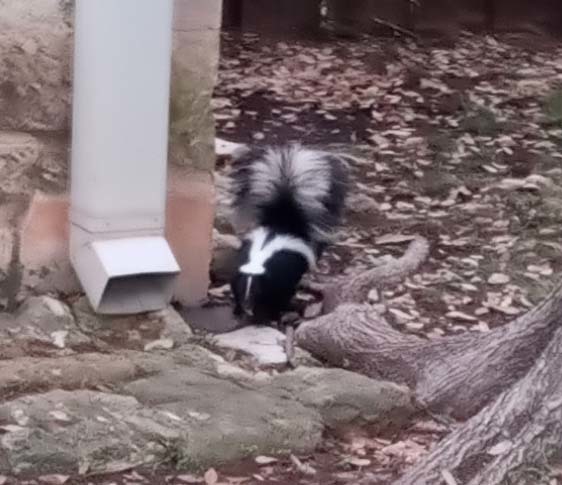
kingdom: Animalia
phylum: Chordata
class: Mammalia
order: Carnivora
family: Mephitidae
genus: Mephitis
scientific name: Mephitis mephitis
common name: Striped skunk
